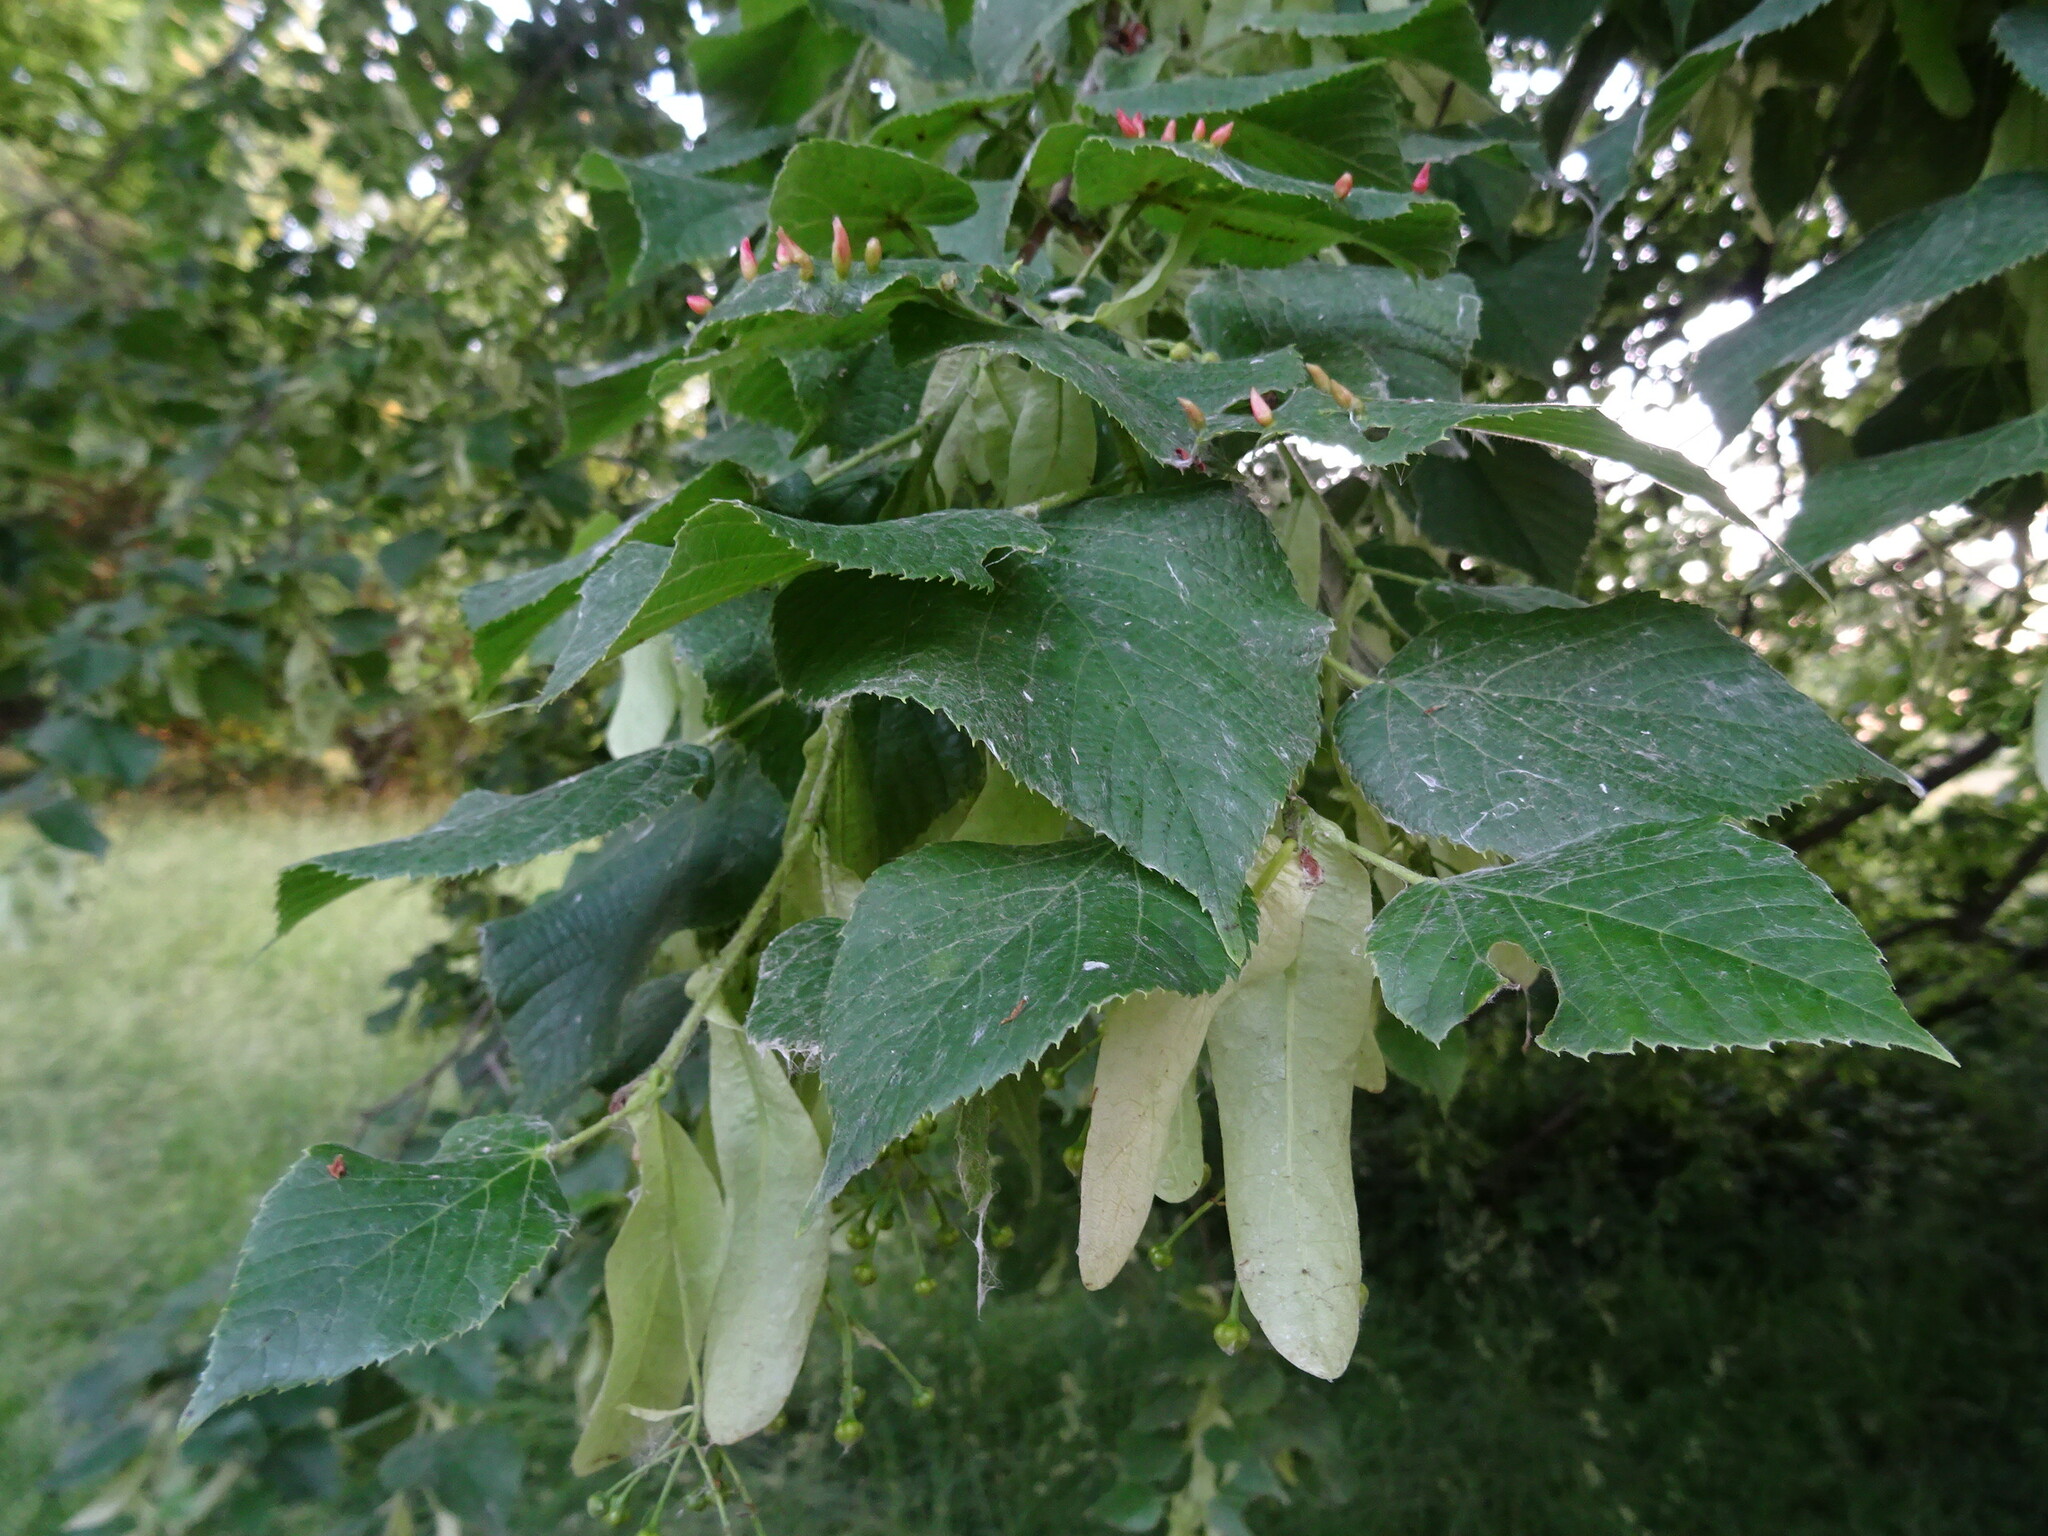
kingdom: Plantae
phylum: Tracheophyta
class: Magnoliopsida
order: Malvales
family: Malvaceae
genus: Tilia
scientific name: Tilia platyphyllos
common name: Large-leaved lime
